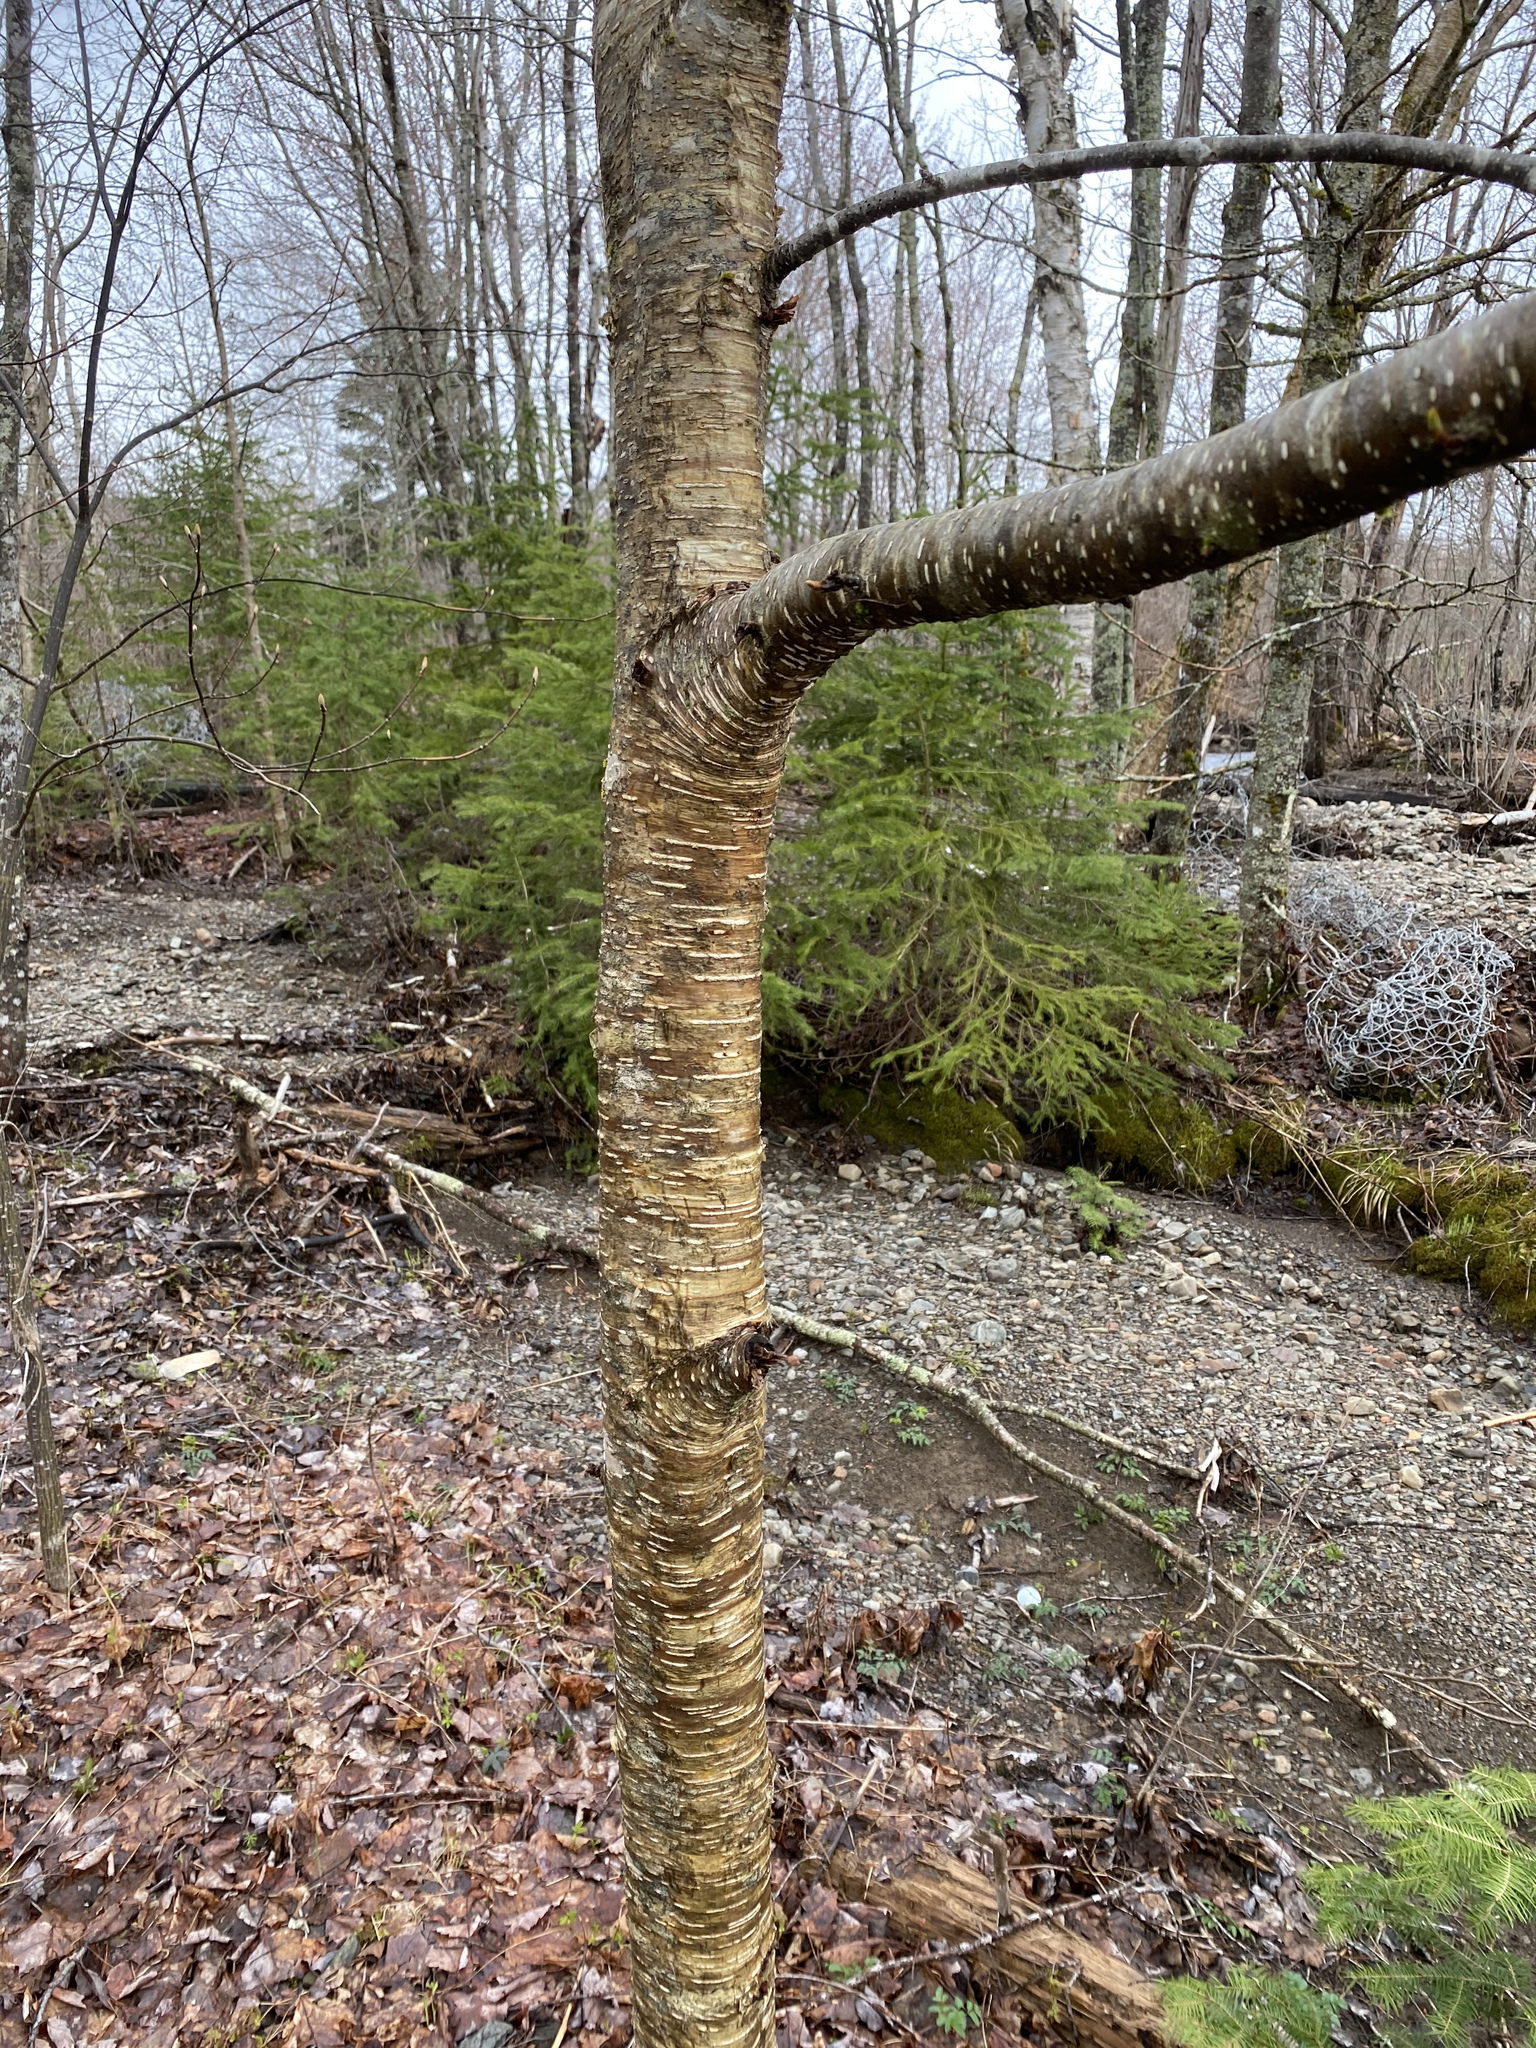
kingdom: Plantae
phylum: Tracheophyta
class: Magnoliopsida
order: Fagales
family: Betulaceae
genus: Betula
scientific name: Betula alleghaniensis
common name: Yellow birch
